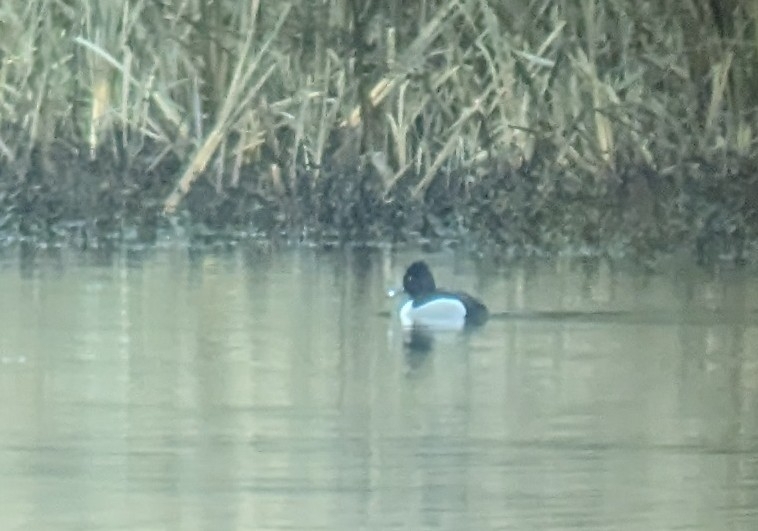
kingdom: Animalia
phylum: Chordata
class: Aves
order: Anseriformes
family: Anatidae
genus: Aythya
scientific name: Aythya collaris
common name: Ring-necked duck
